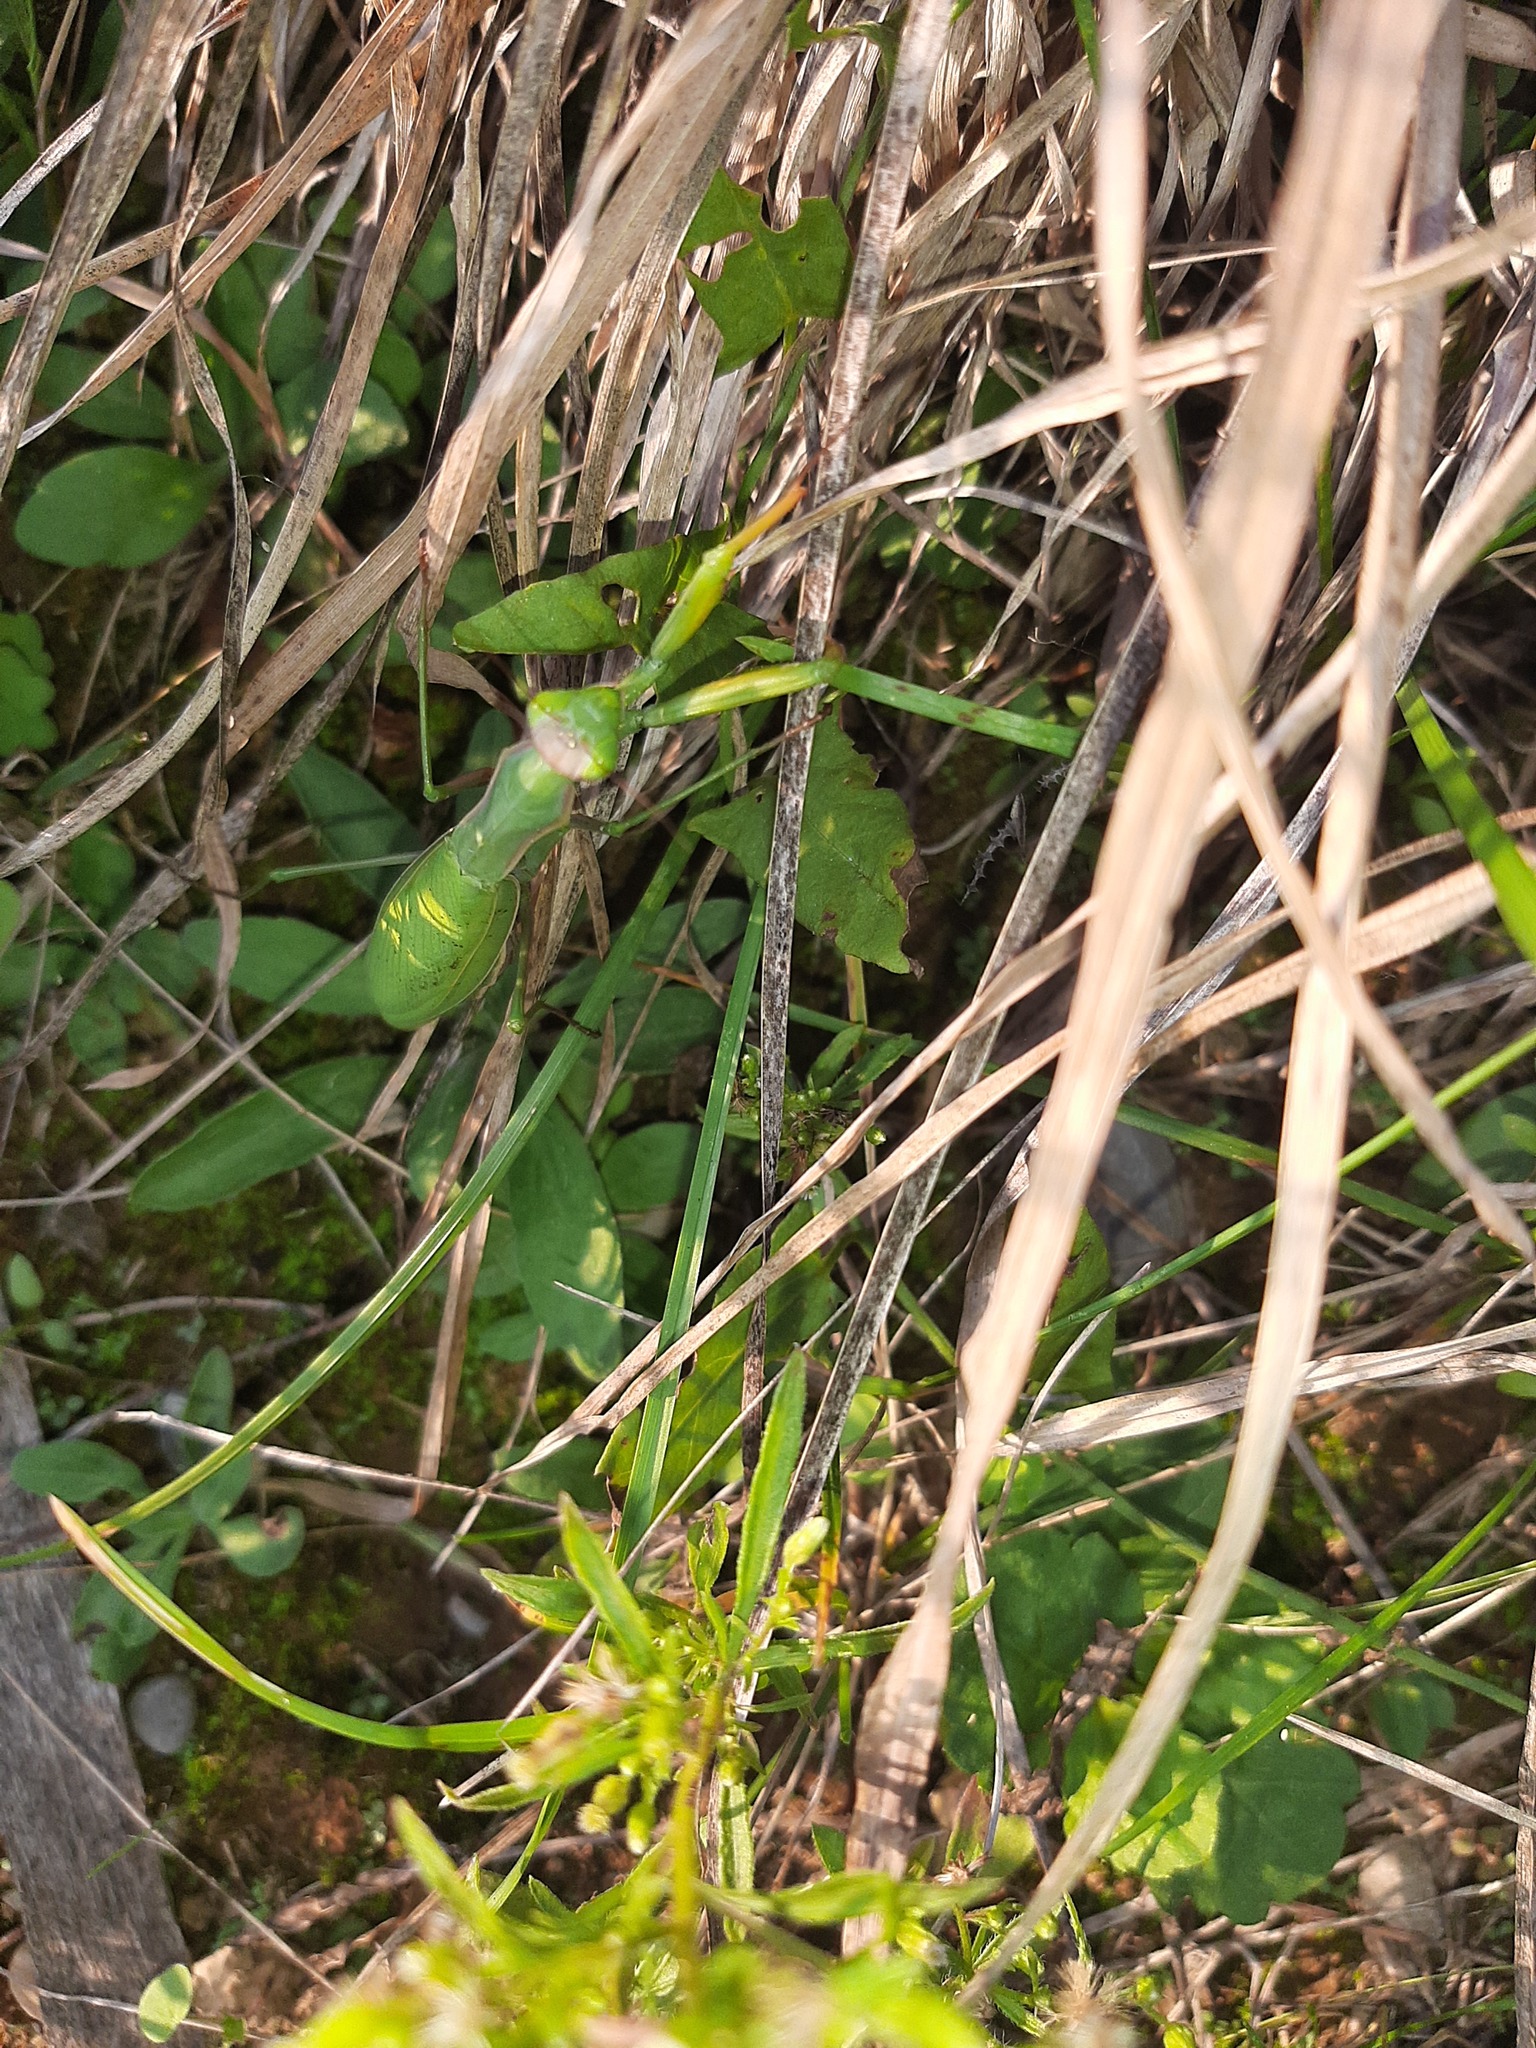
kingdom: Animalia
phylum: Arthropoda
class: Insecta
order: Mantodea
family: Mantidae
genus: Mantis
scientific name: Mantis religiosa
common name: Praying mantis
